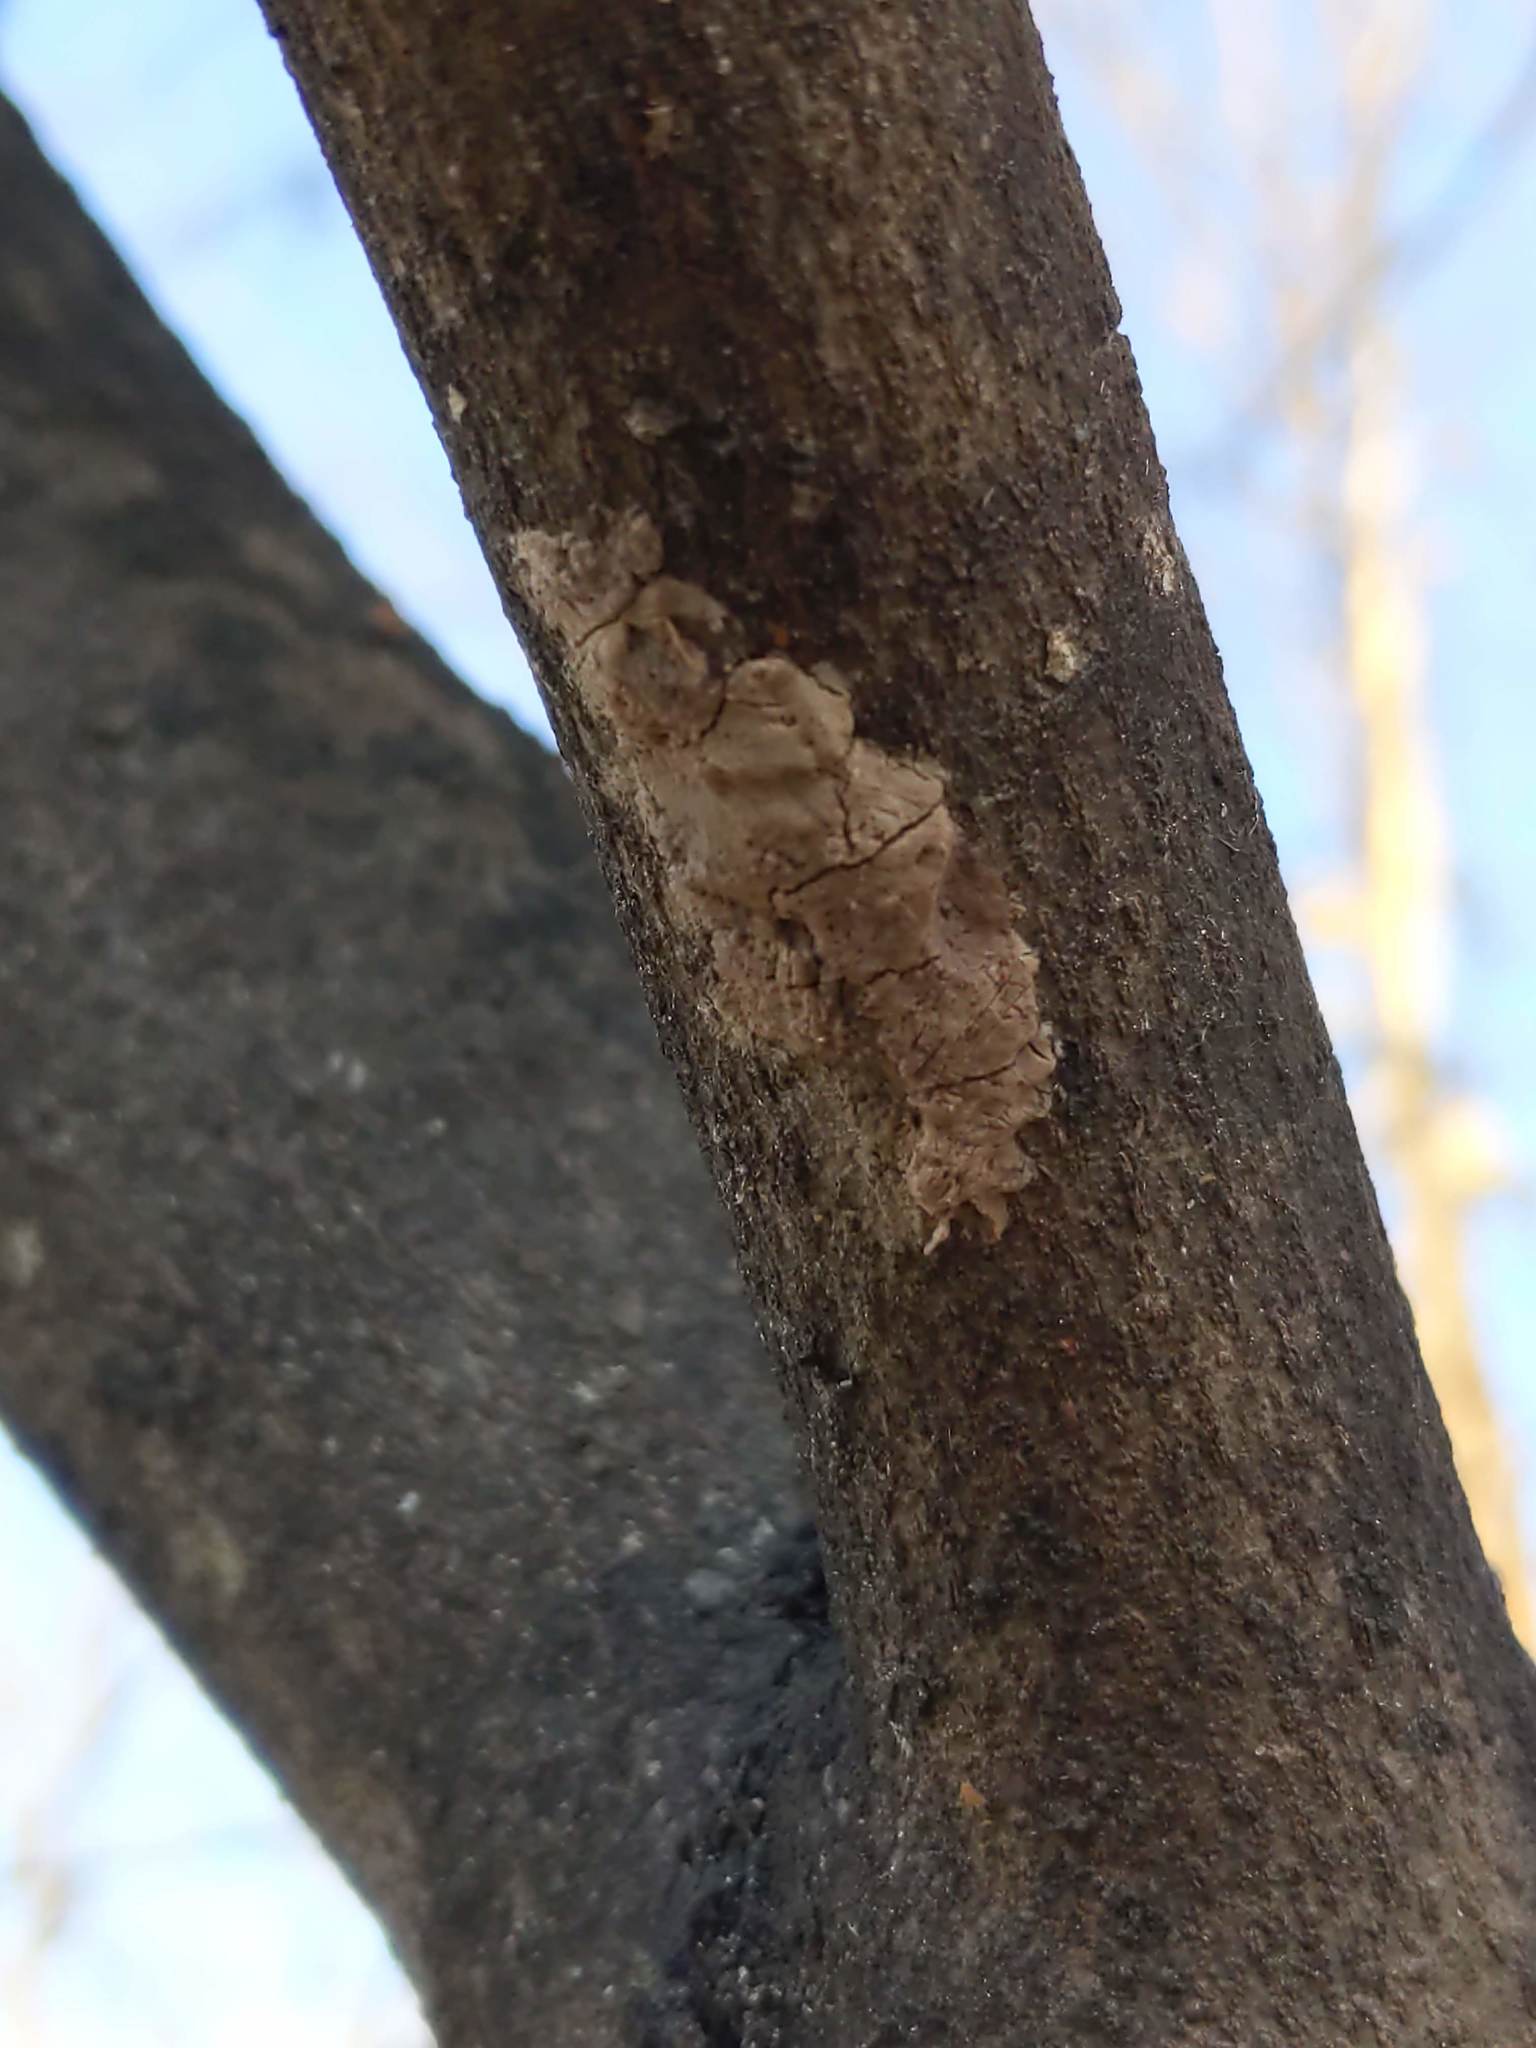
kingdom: Animalia
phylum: Arthropoda
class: Insecta
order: Hemiptera
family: Fulgoridae
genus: Lycorma
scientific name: Lycorma delicatula
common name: Spotted lanternfly
